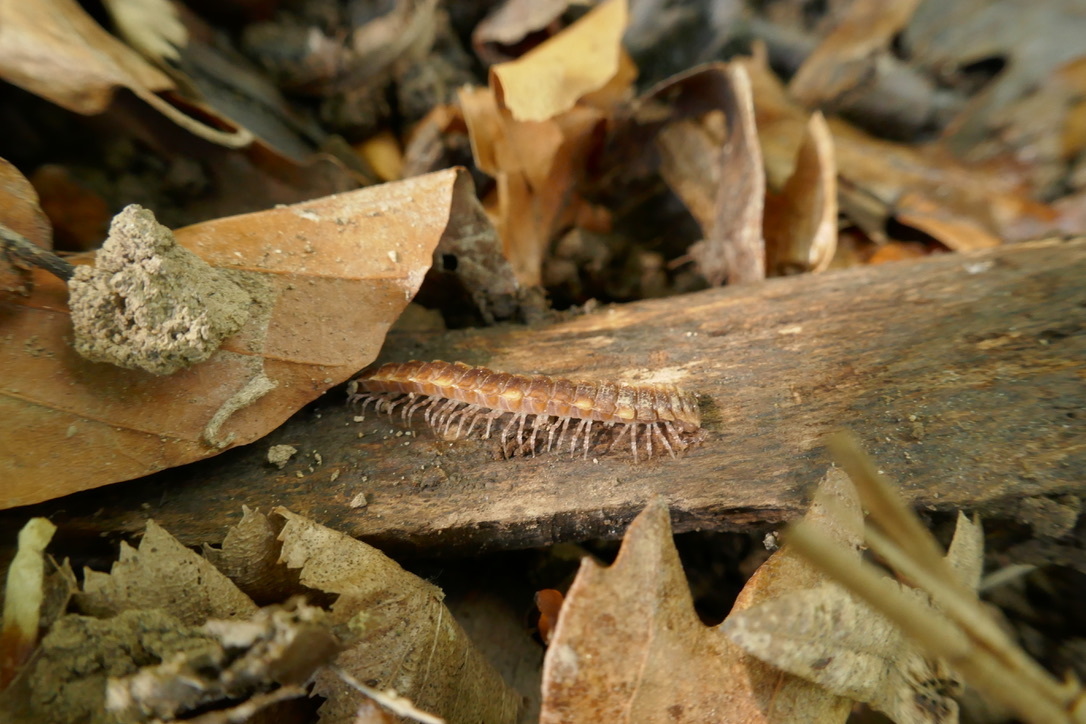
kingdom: Animalia
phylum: Arthropoda
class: Diplopoda
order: Polydesmida
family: Polydesmidae
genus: Polydesmus
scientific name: Polydesmus complanatus
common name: Flat-backed millipede
